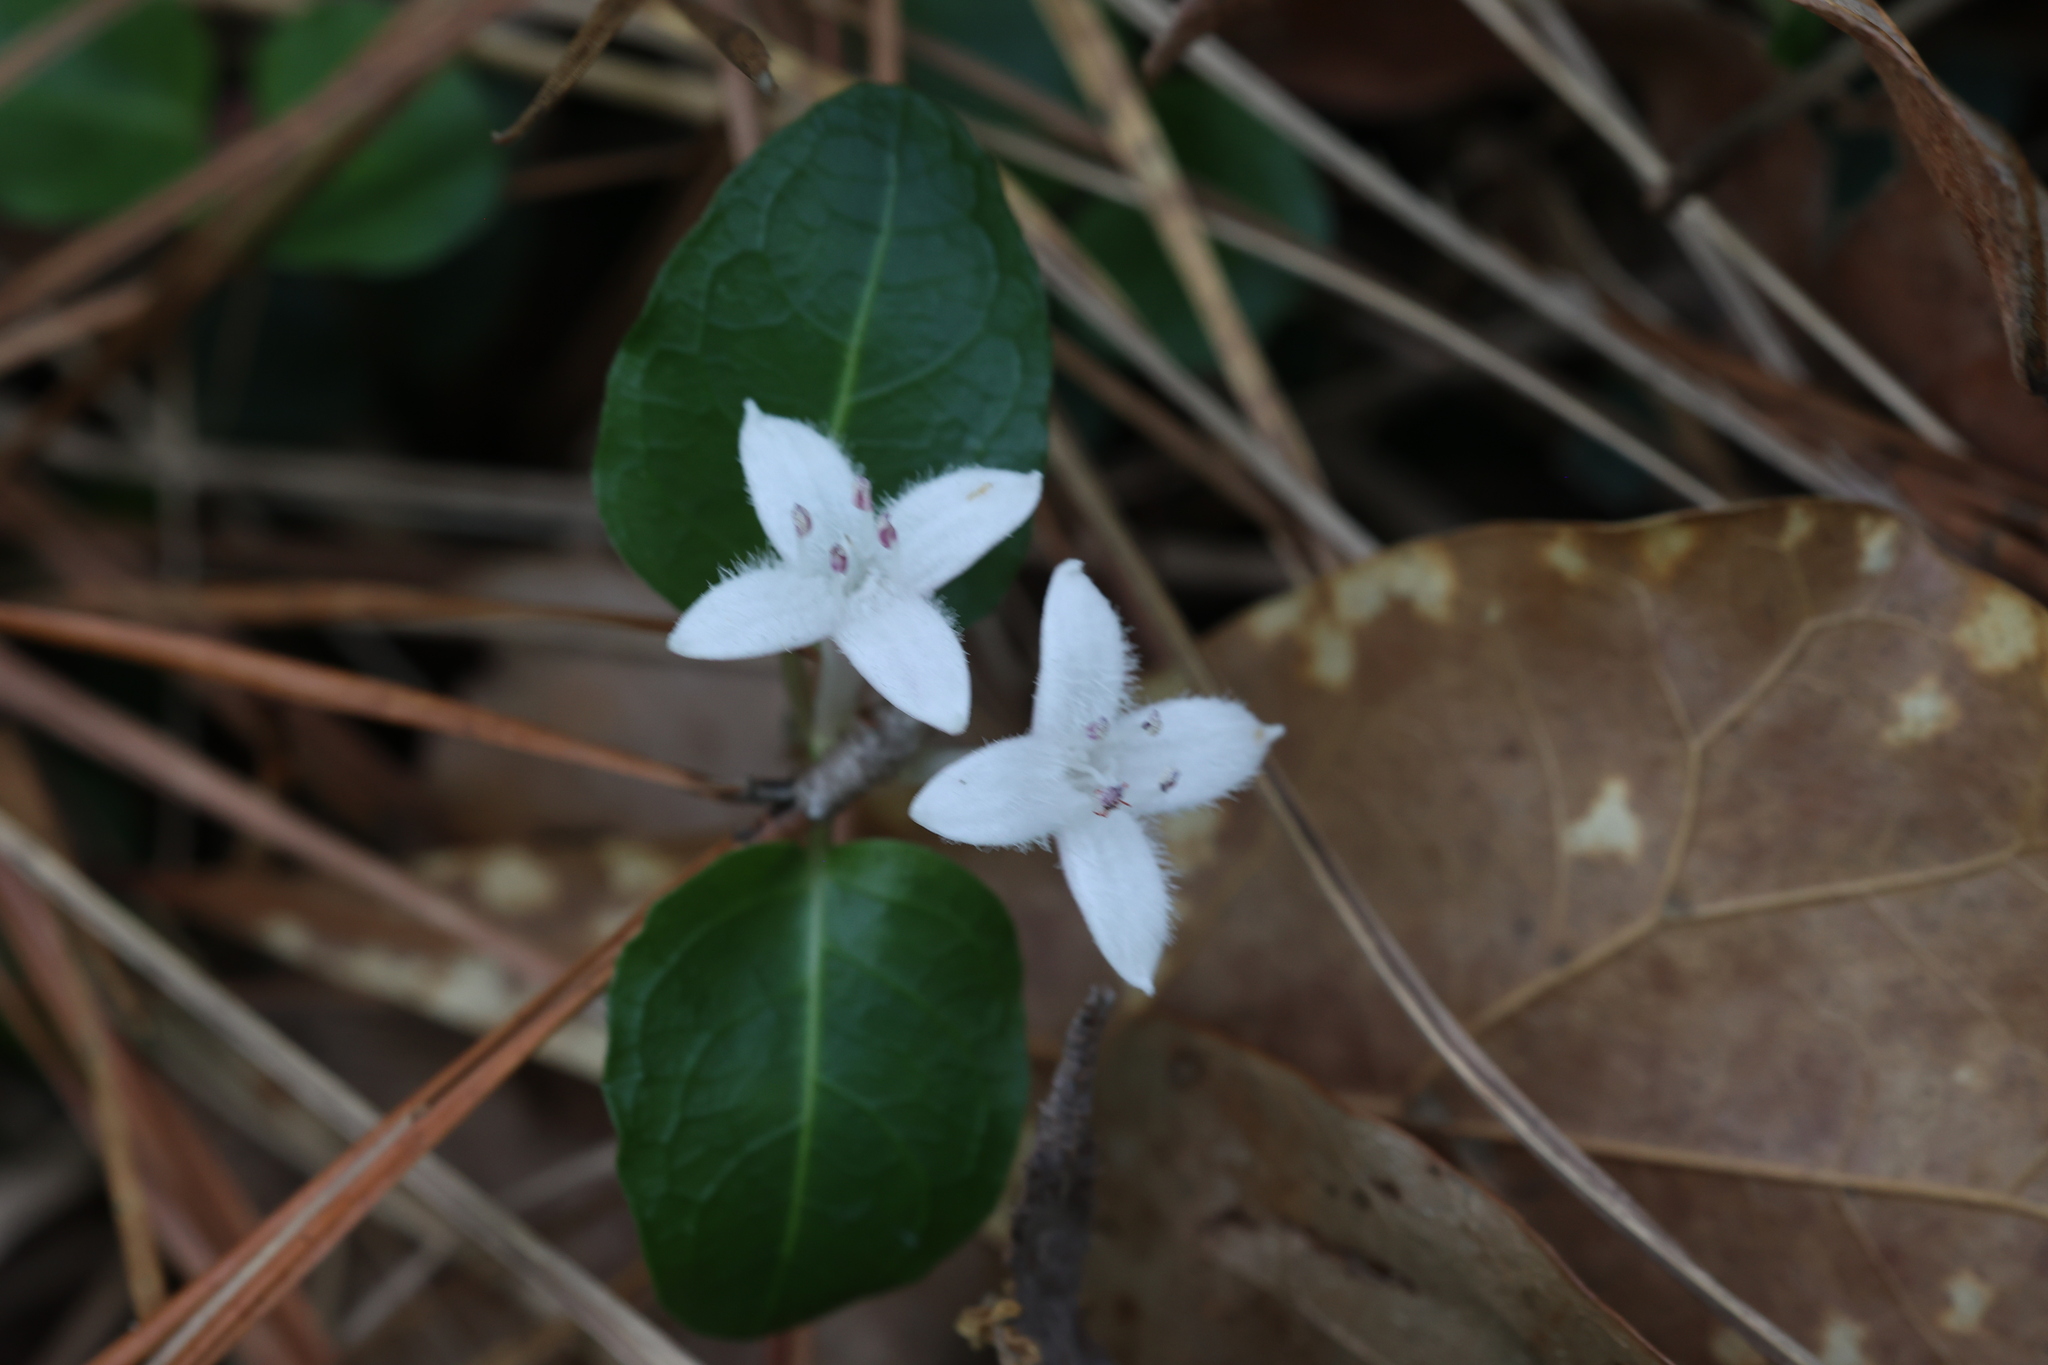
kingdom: Plantae
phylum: Tracheophyta
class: Magnoliopsida
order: Gentianales
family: Rubiaceae
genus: Mitchella
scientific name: Mitchella repens
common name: Partridge-berry
